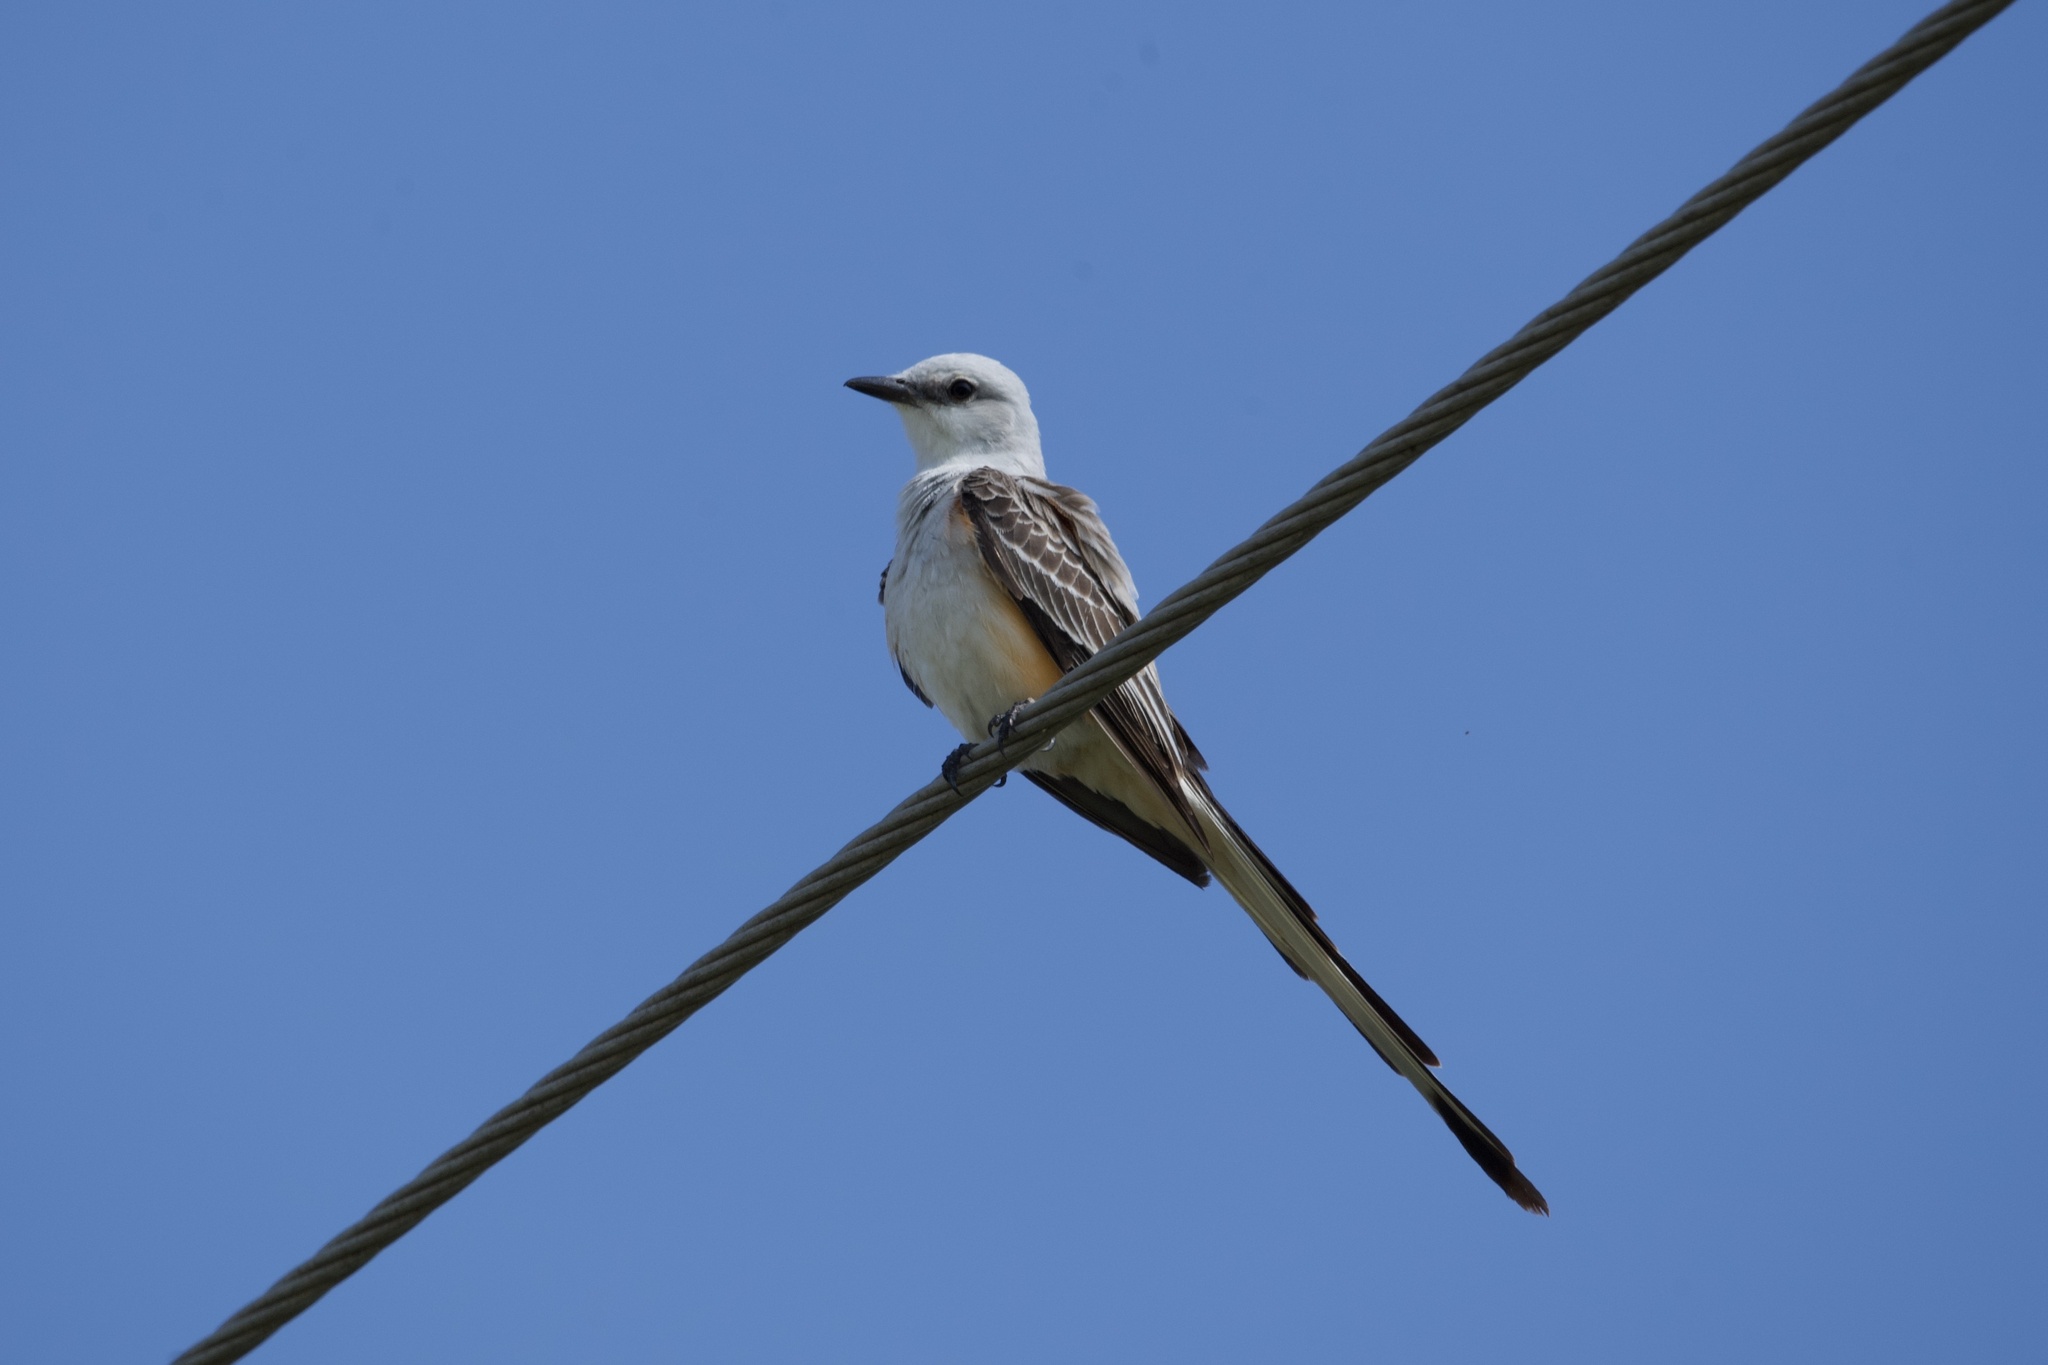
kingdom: Animalia
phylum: Chordata
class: Aves
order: Passeriformes
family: Tyrannidae
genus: Tyrannus
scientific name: Tyrannus forficatus
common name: Scissor-tailed flycatcher
